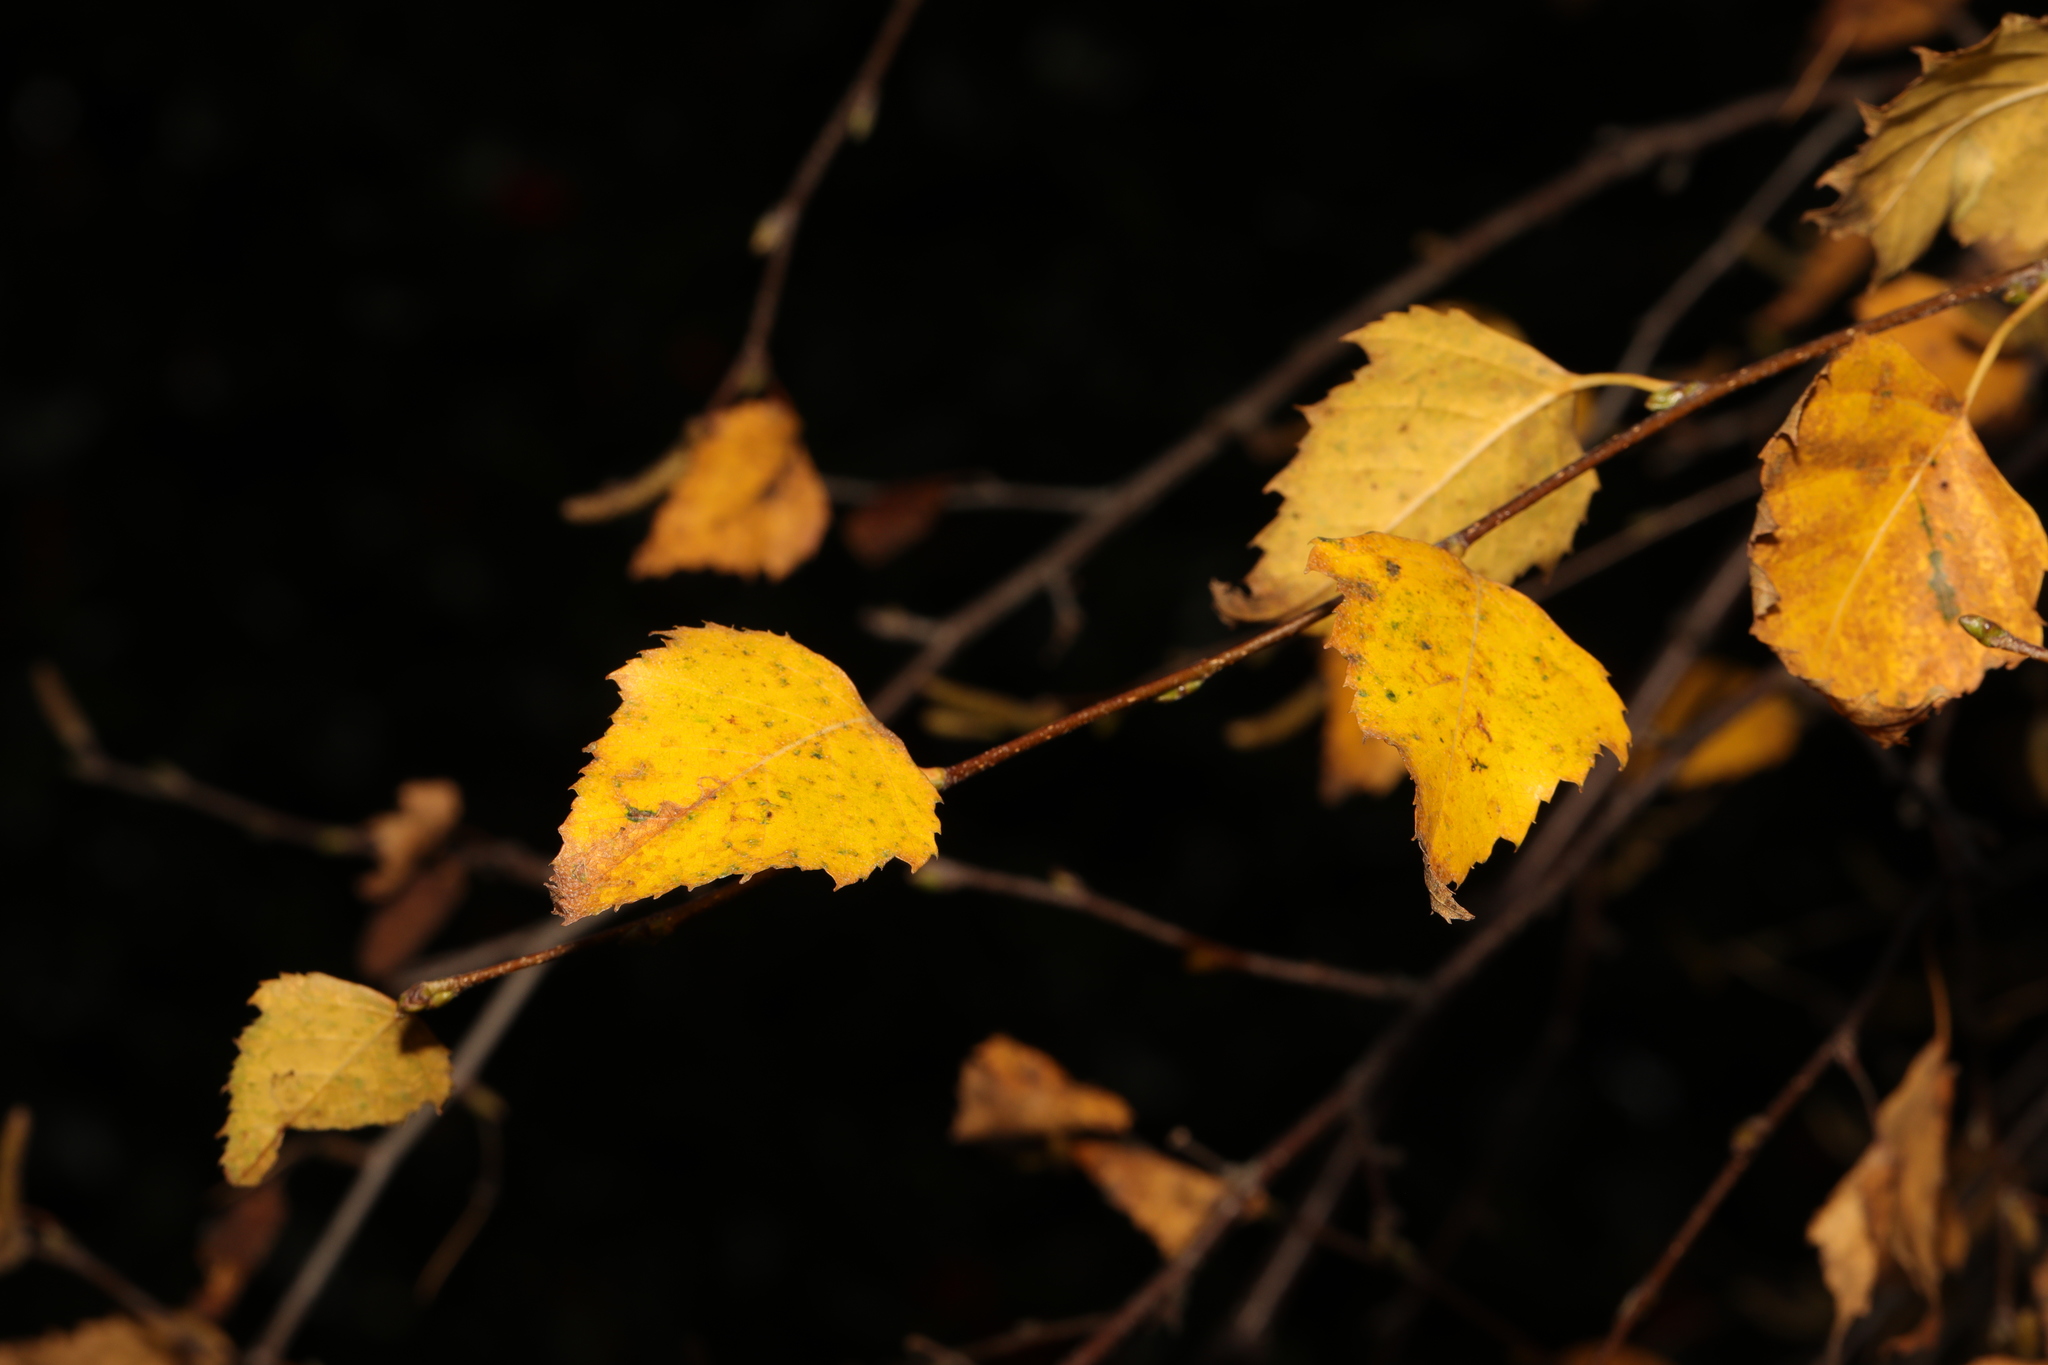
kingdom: Plantae
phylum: Tracheophyta
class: Magnoliopsida
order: Fagales
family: Betulaceae
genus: Betula
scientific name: Betula pendula
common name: Silver birch
